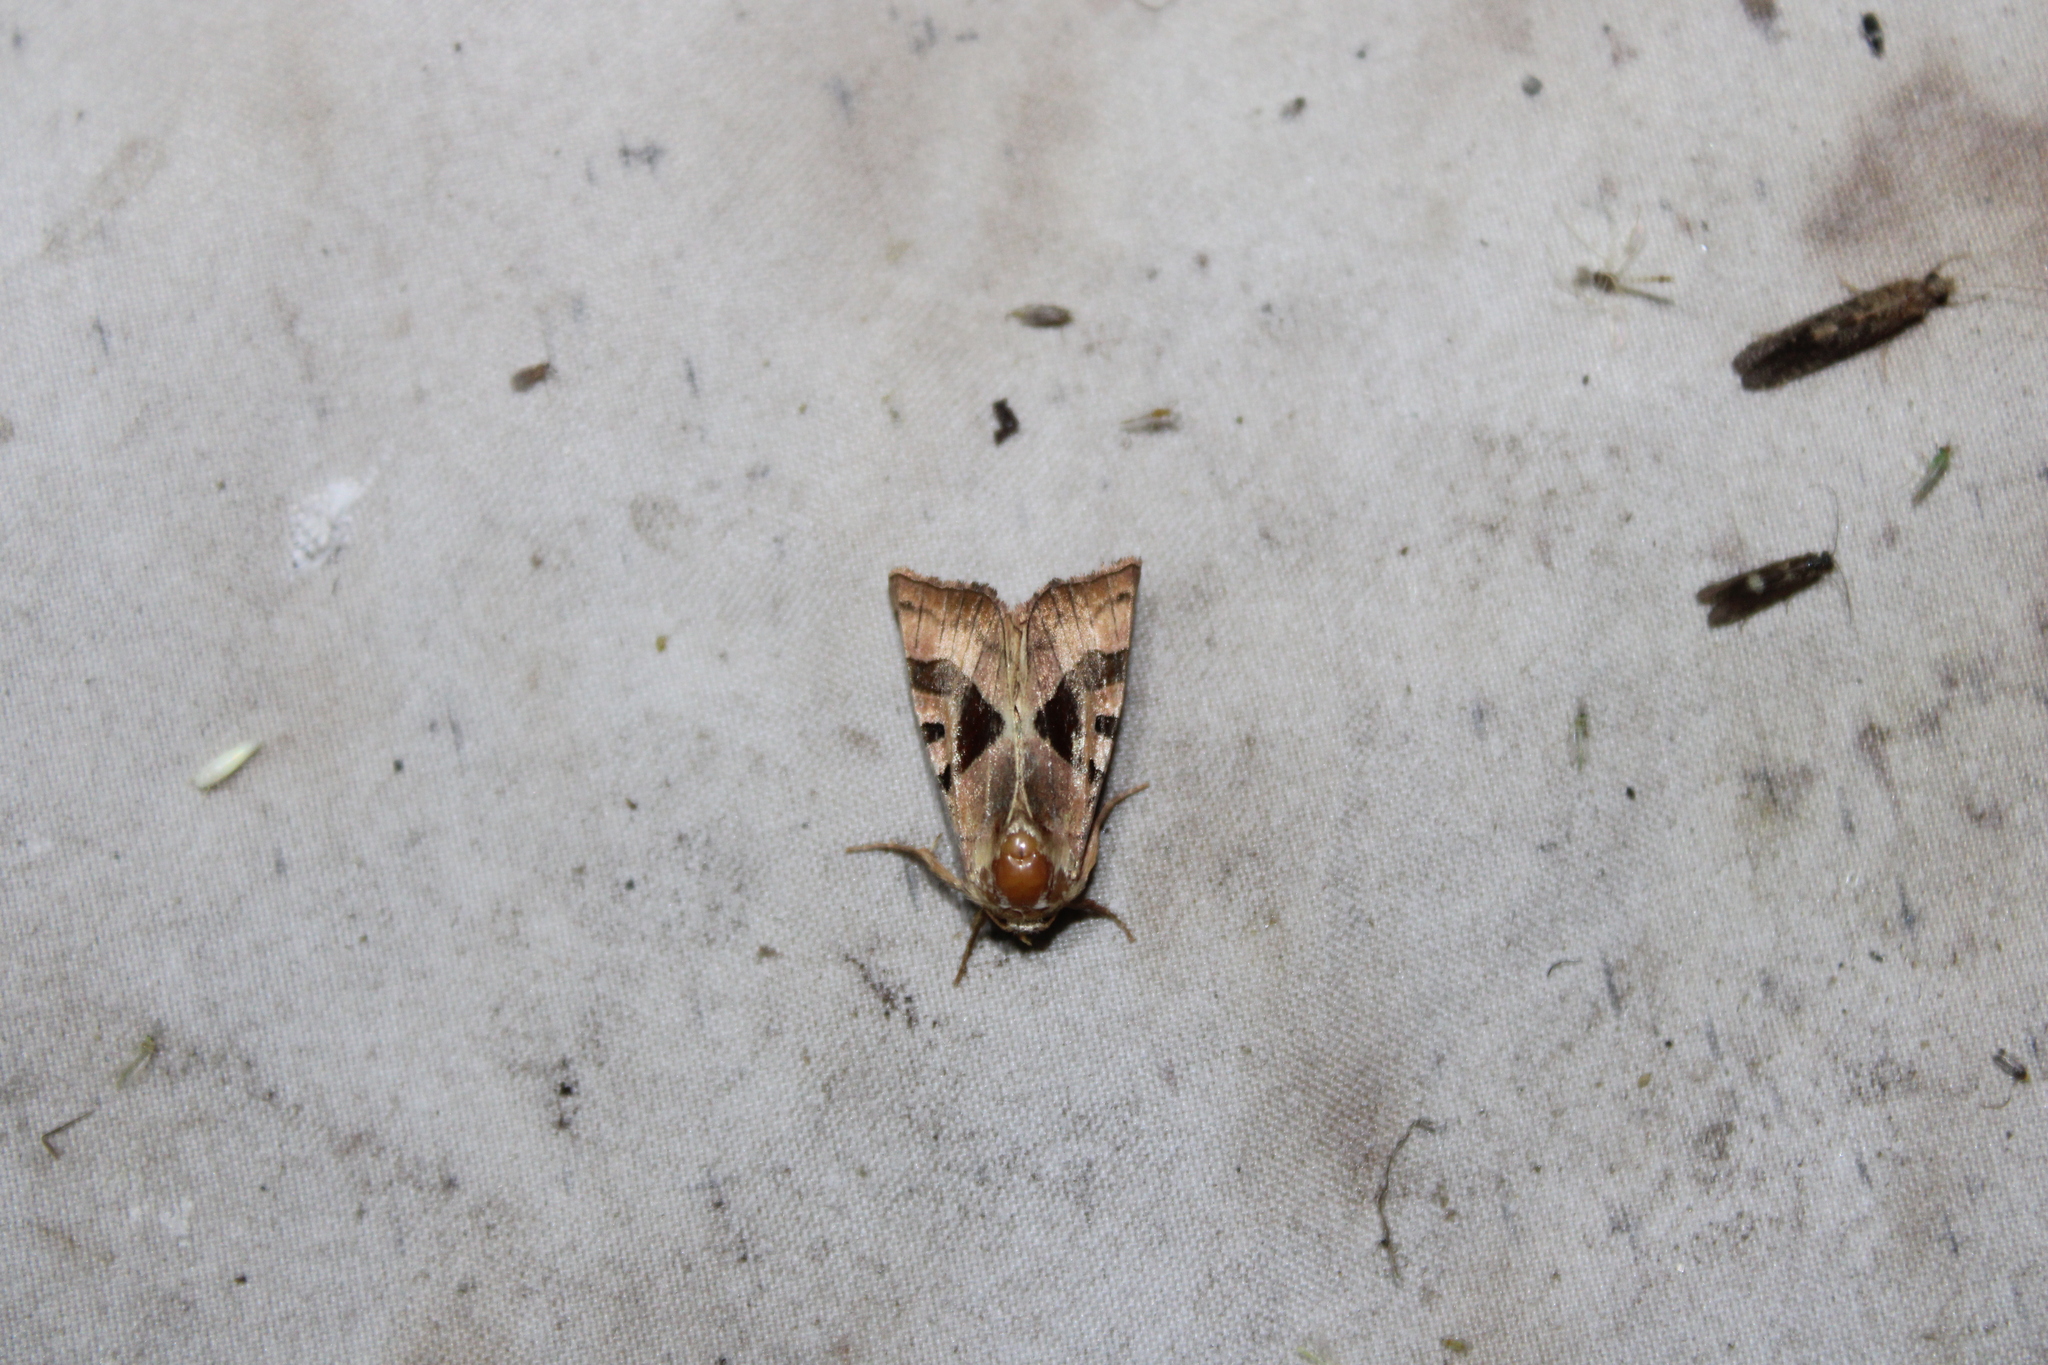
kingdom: Animalia
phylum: Arthropoda
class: Insecta
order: Lepidoptera
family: Noctuidae
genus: Conservula
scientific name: Conservula anodonta
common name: Sharp angle shades
